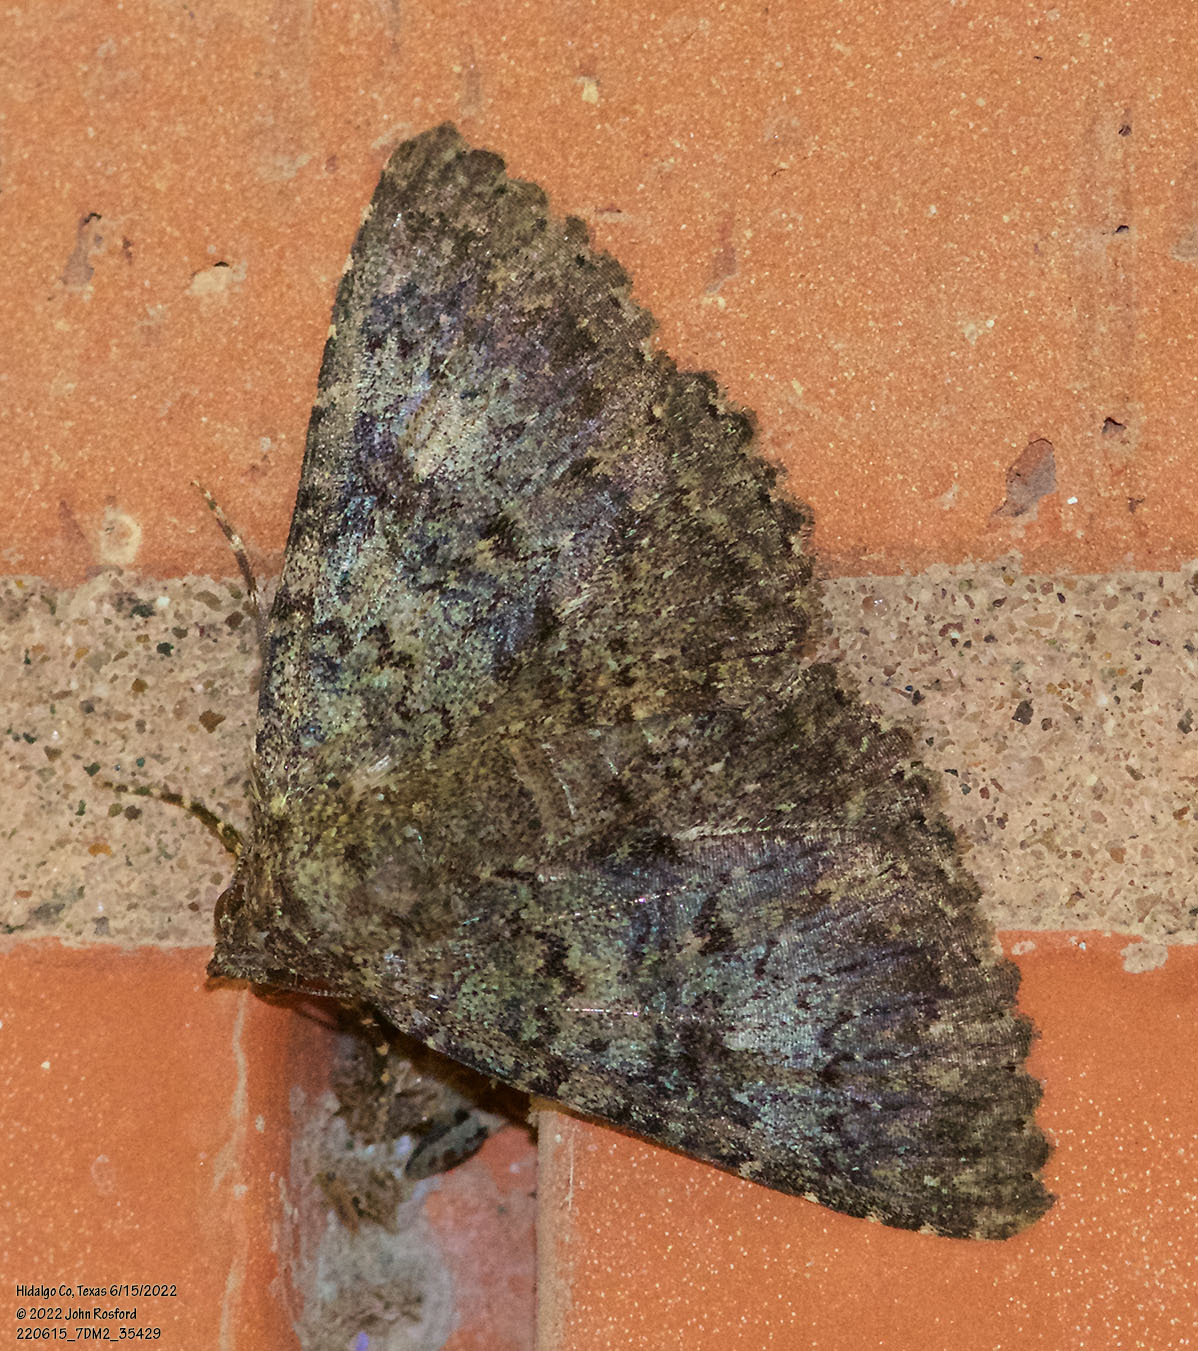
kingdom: Animalia
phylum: Arthropoda
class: Insecta
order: Lepidoptera
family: Erebidae
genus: Matigramma
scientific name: Matigramma obscurior
